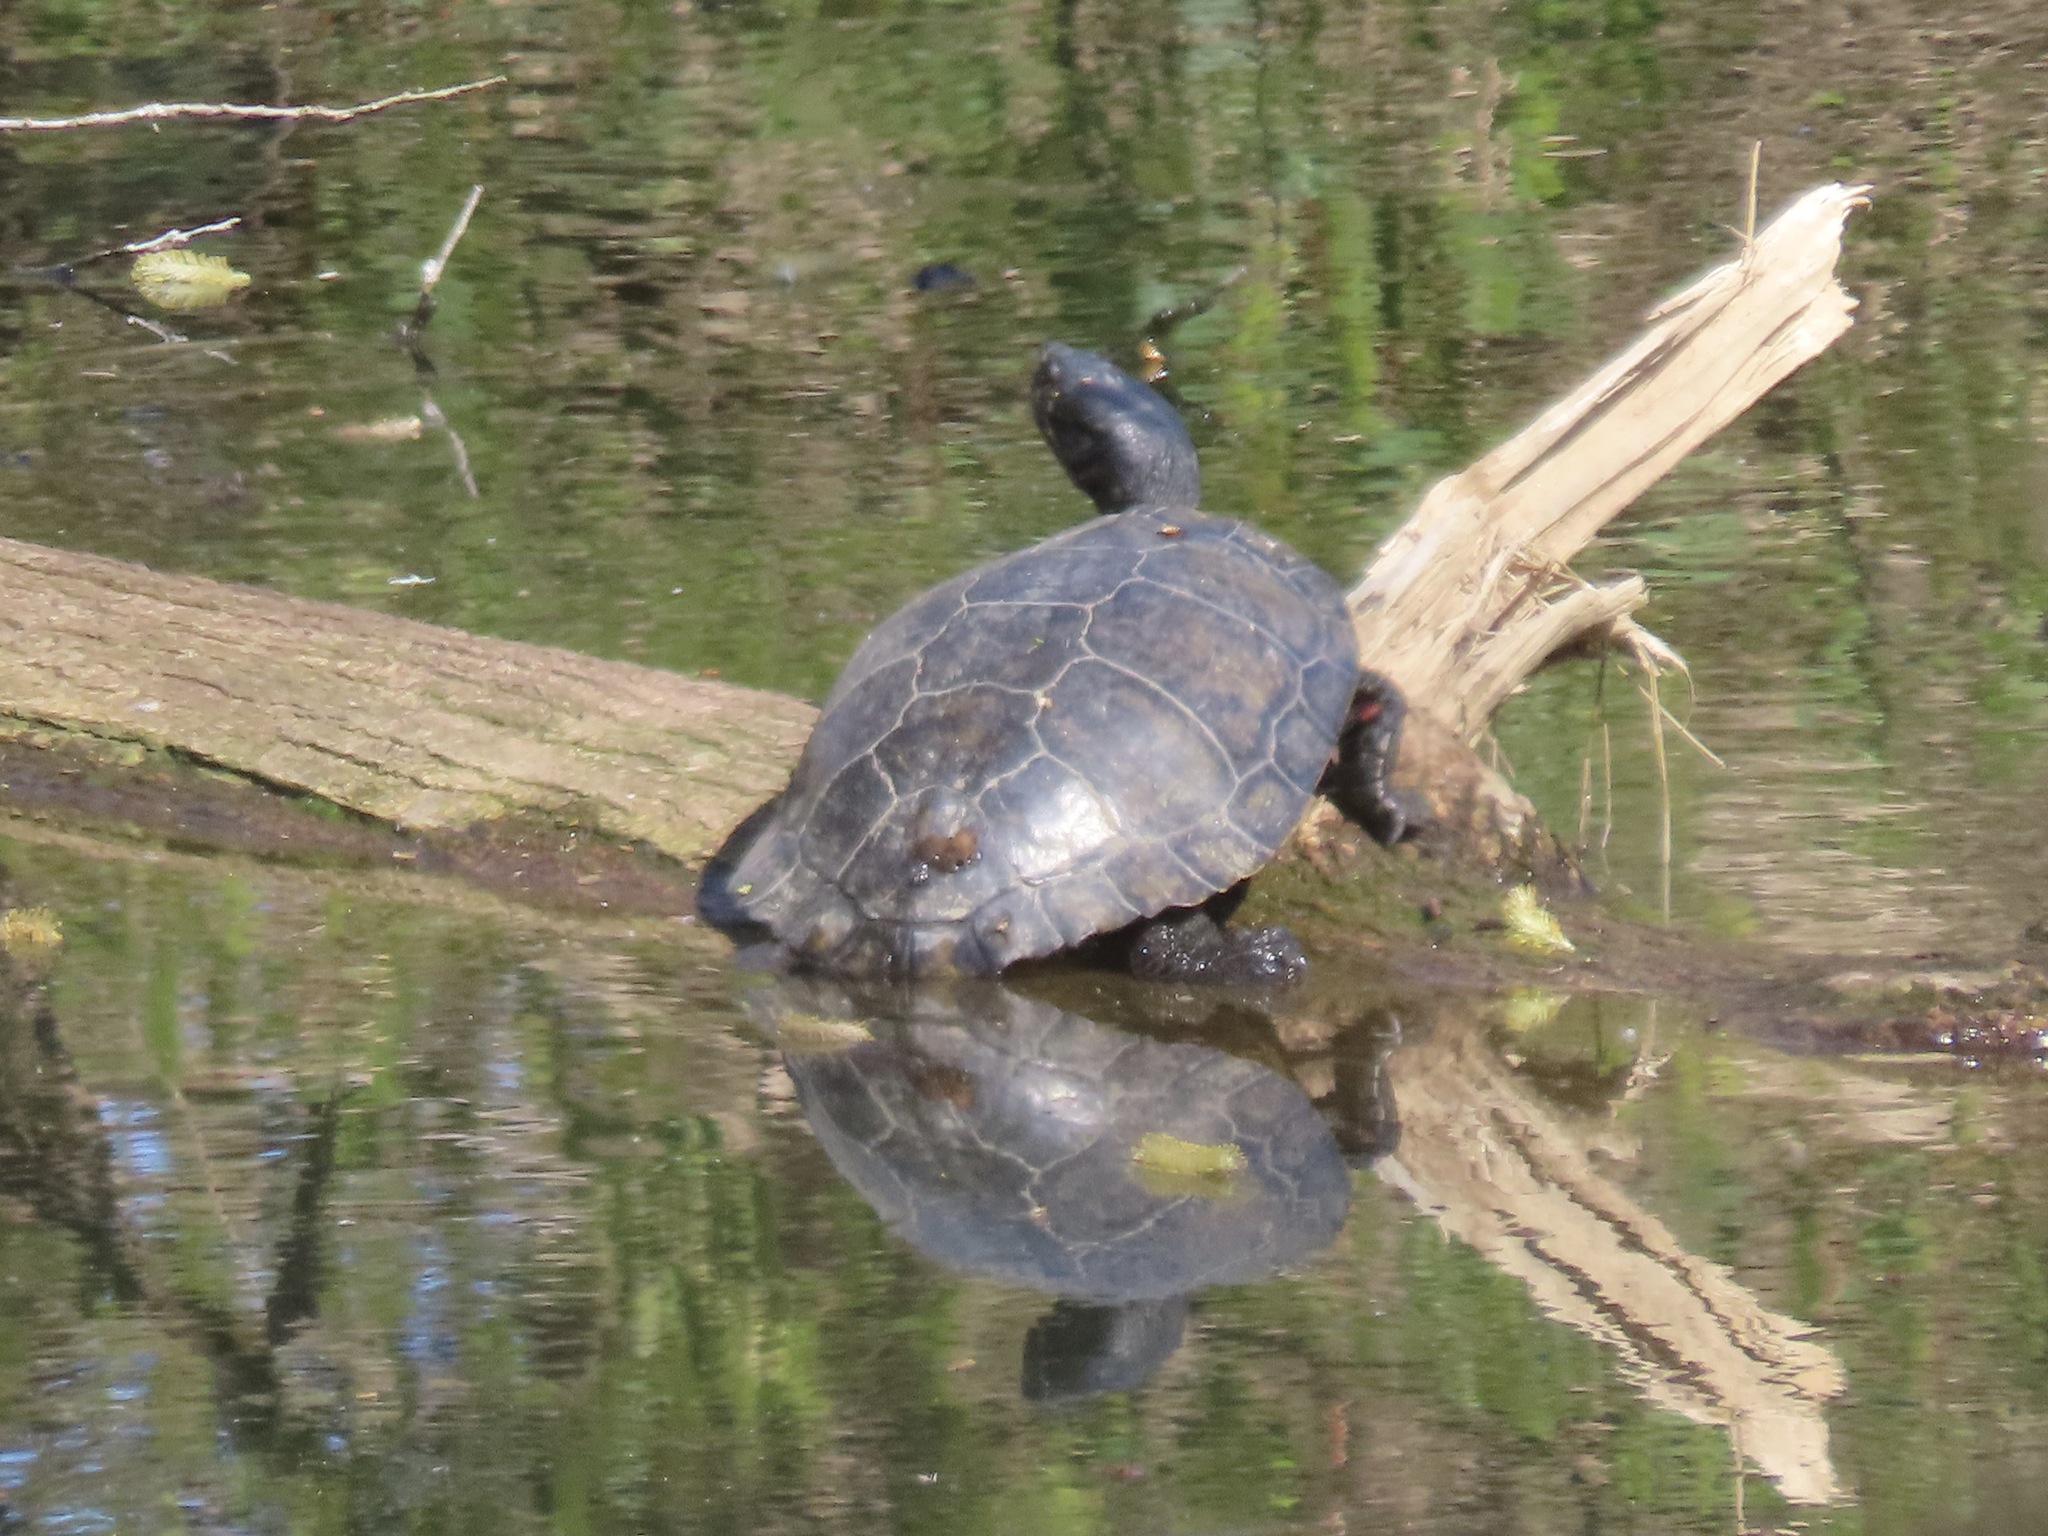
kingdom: Animalia
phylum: Chordata
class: Testudines
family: Emydidae
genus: Trachemys
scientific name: Trachemys scripta
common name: Slider
